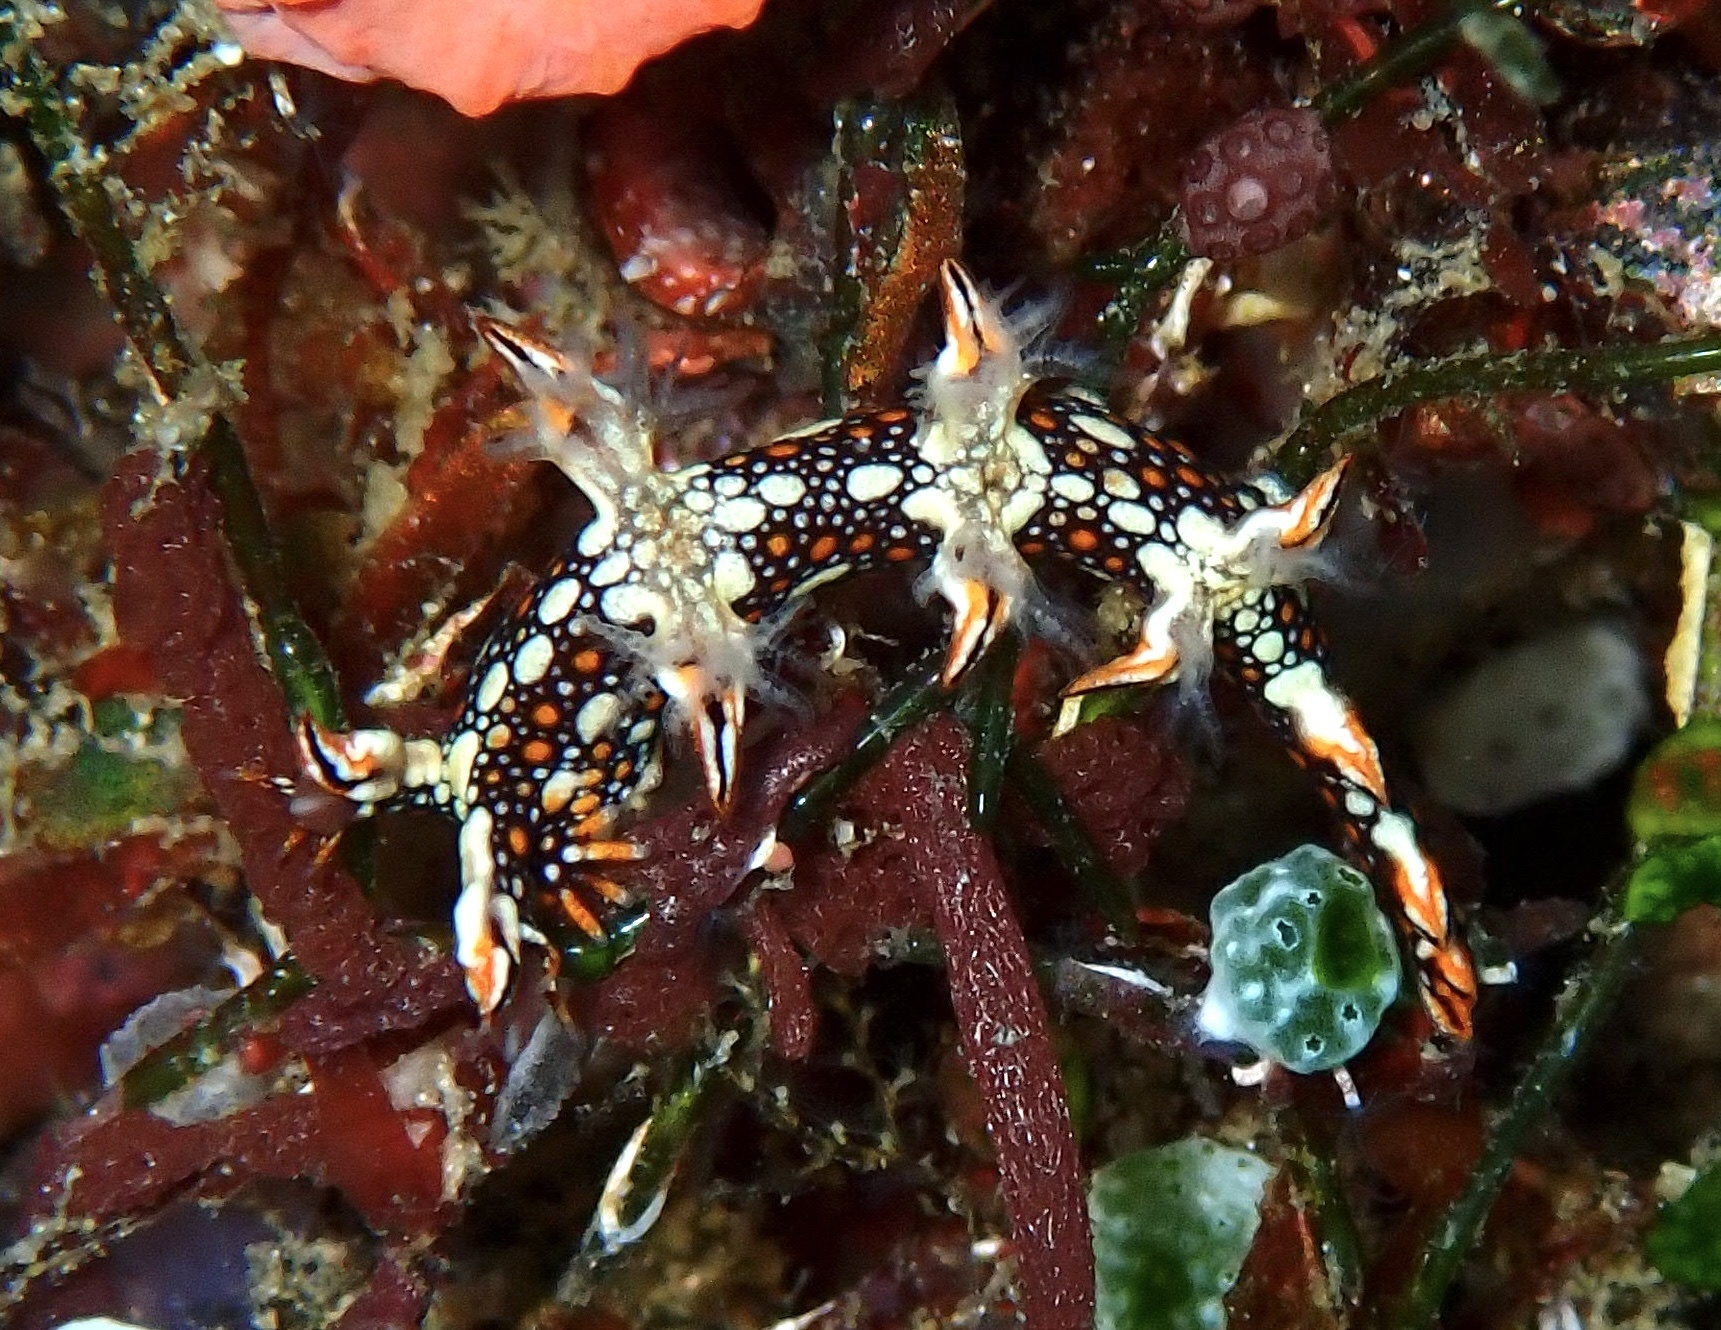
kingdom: Animalia
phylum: Mollusca
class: Gastropoda
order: Nudibranchia
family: Bornellidae
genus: Bornella
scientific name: Bornella anguilla
